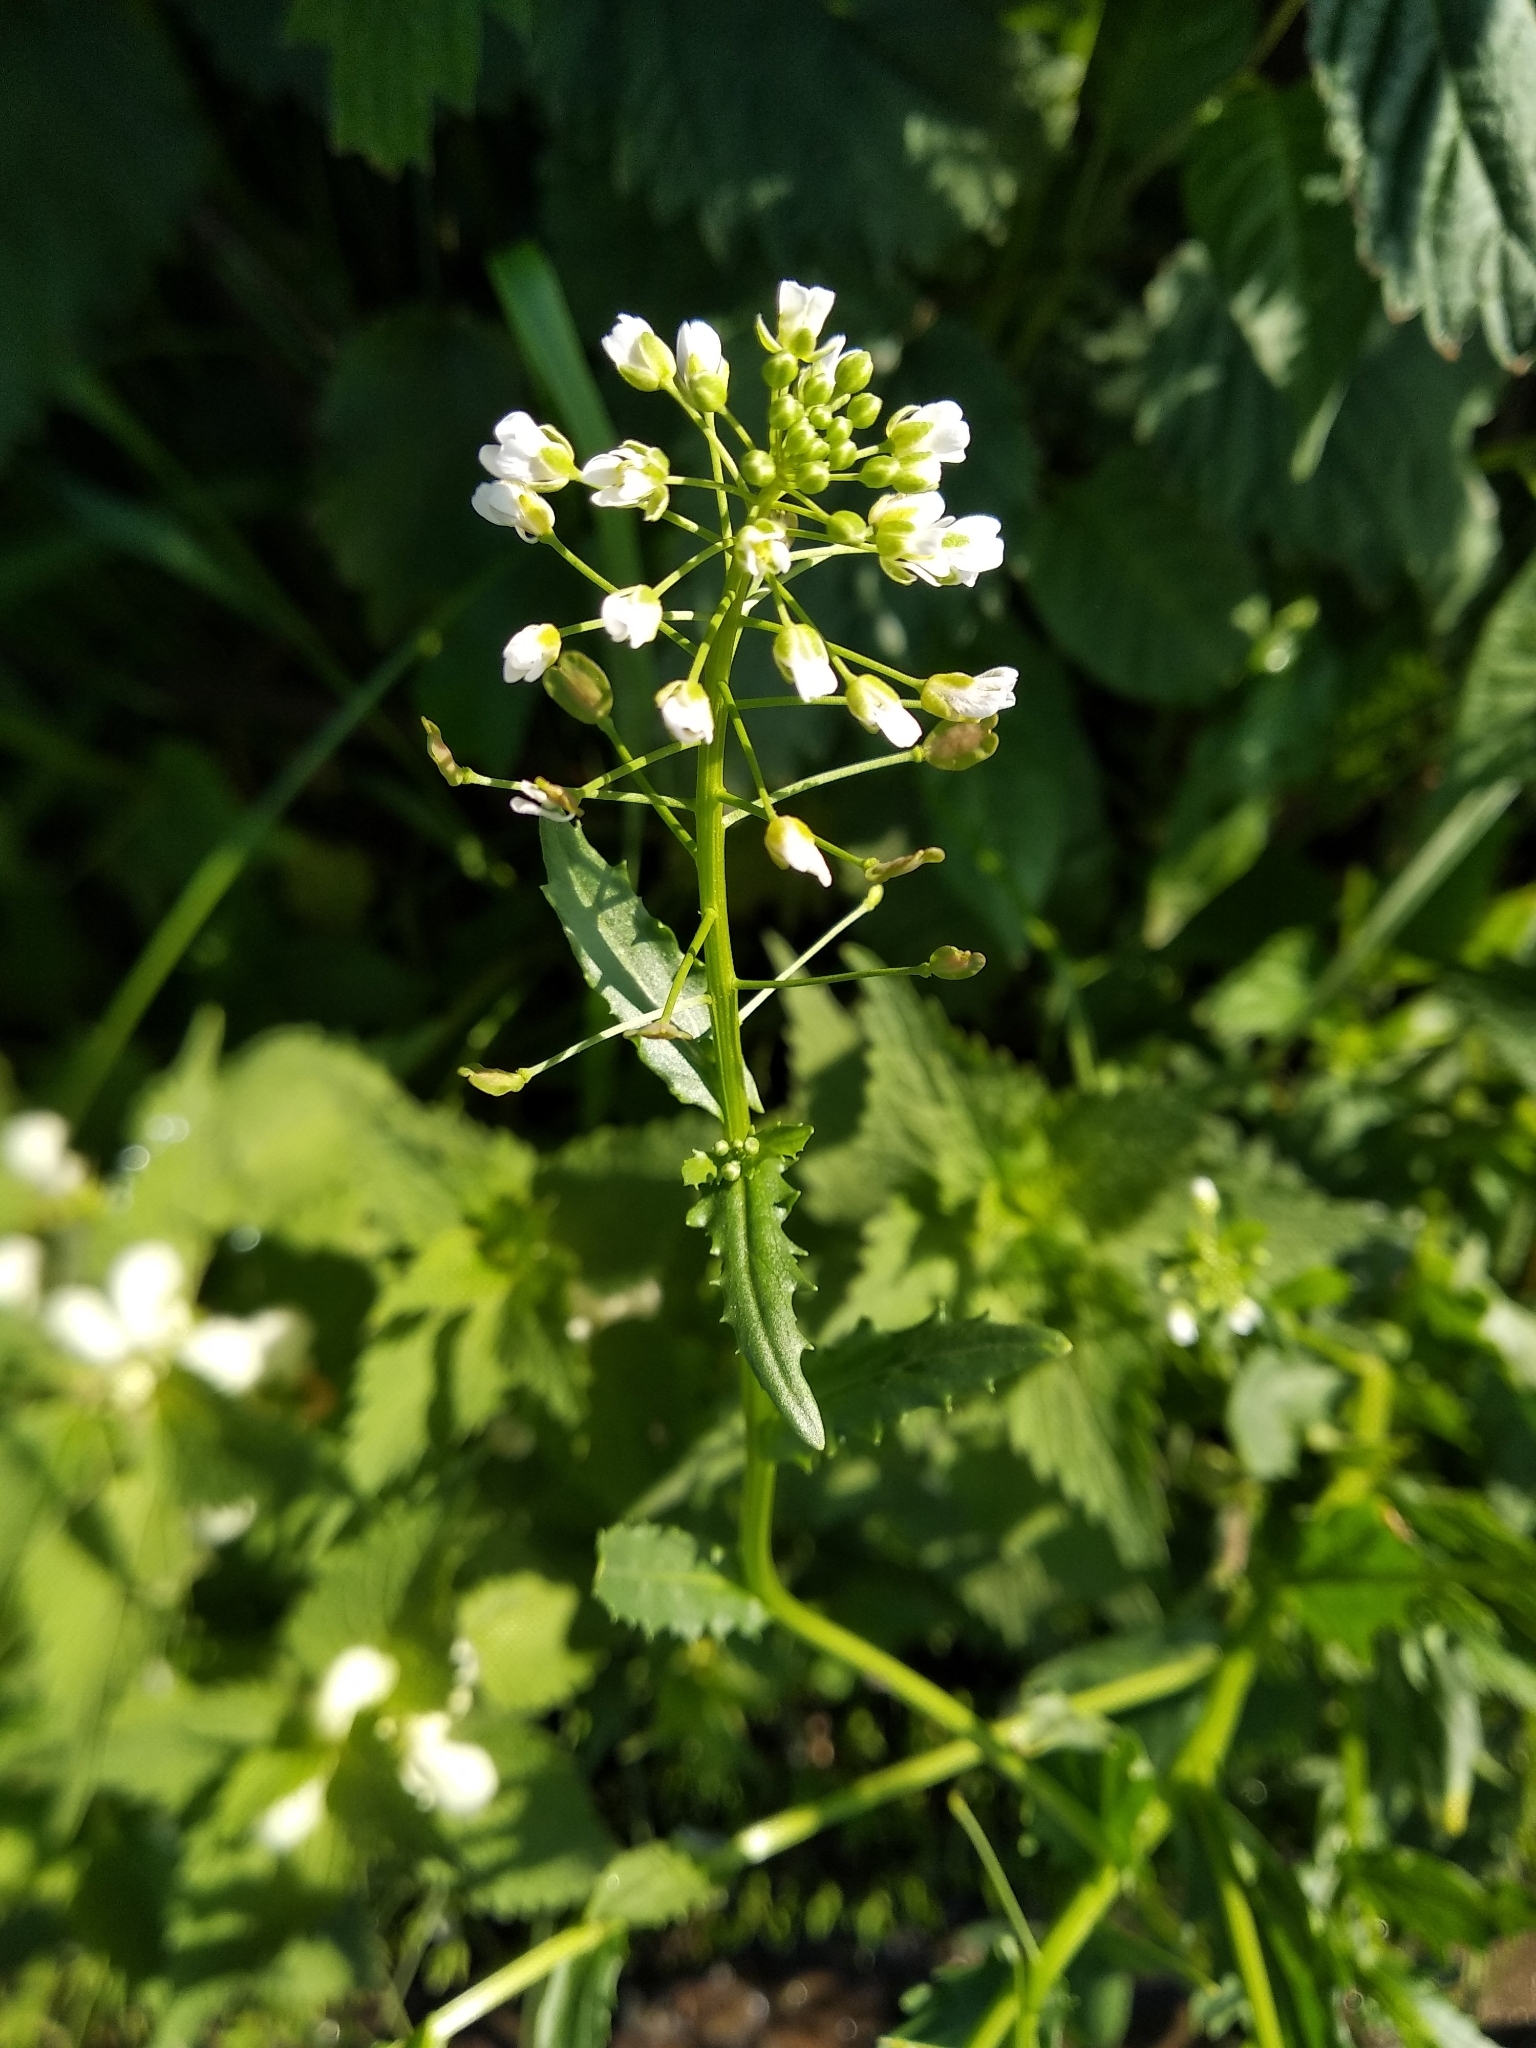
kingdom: Plantae
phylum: Tracheophyta
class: Magnoliopsida
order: Brassicales
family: Brassicaceae
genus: Capsella
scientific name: Capsella bursa-pastoris
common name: Shepherd's purse
